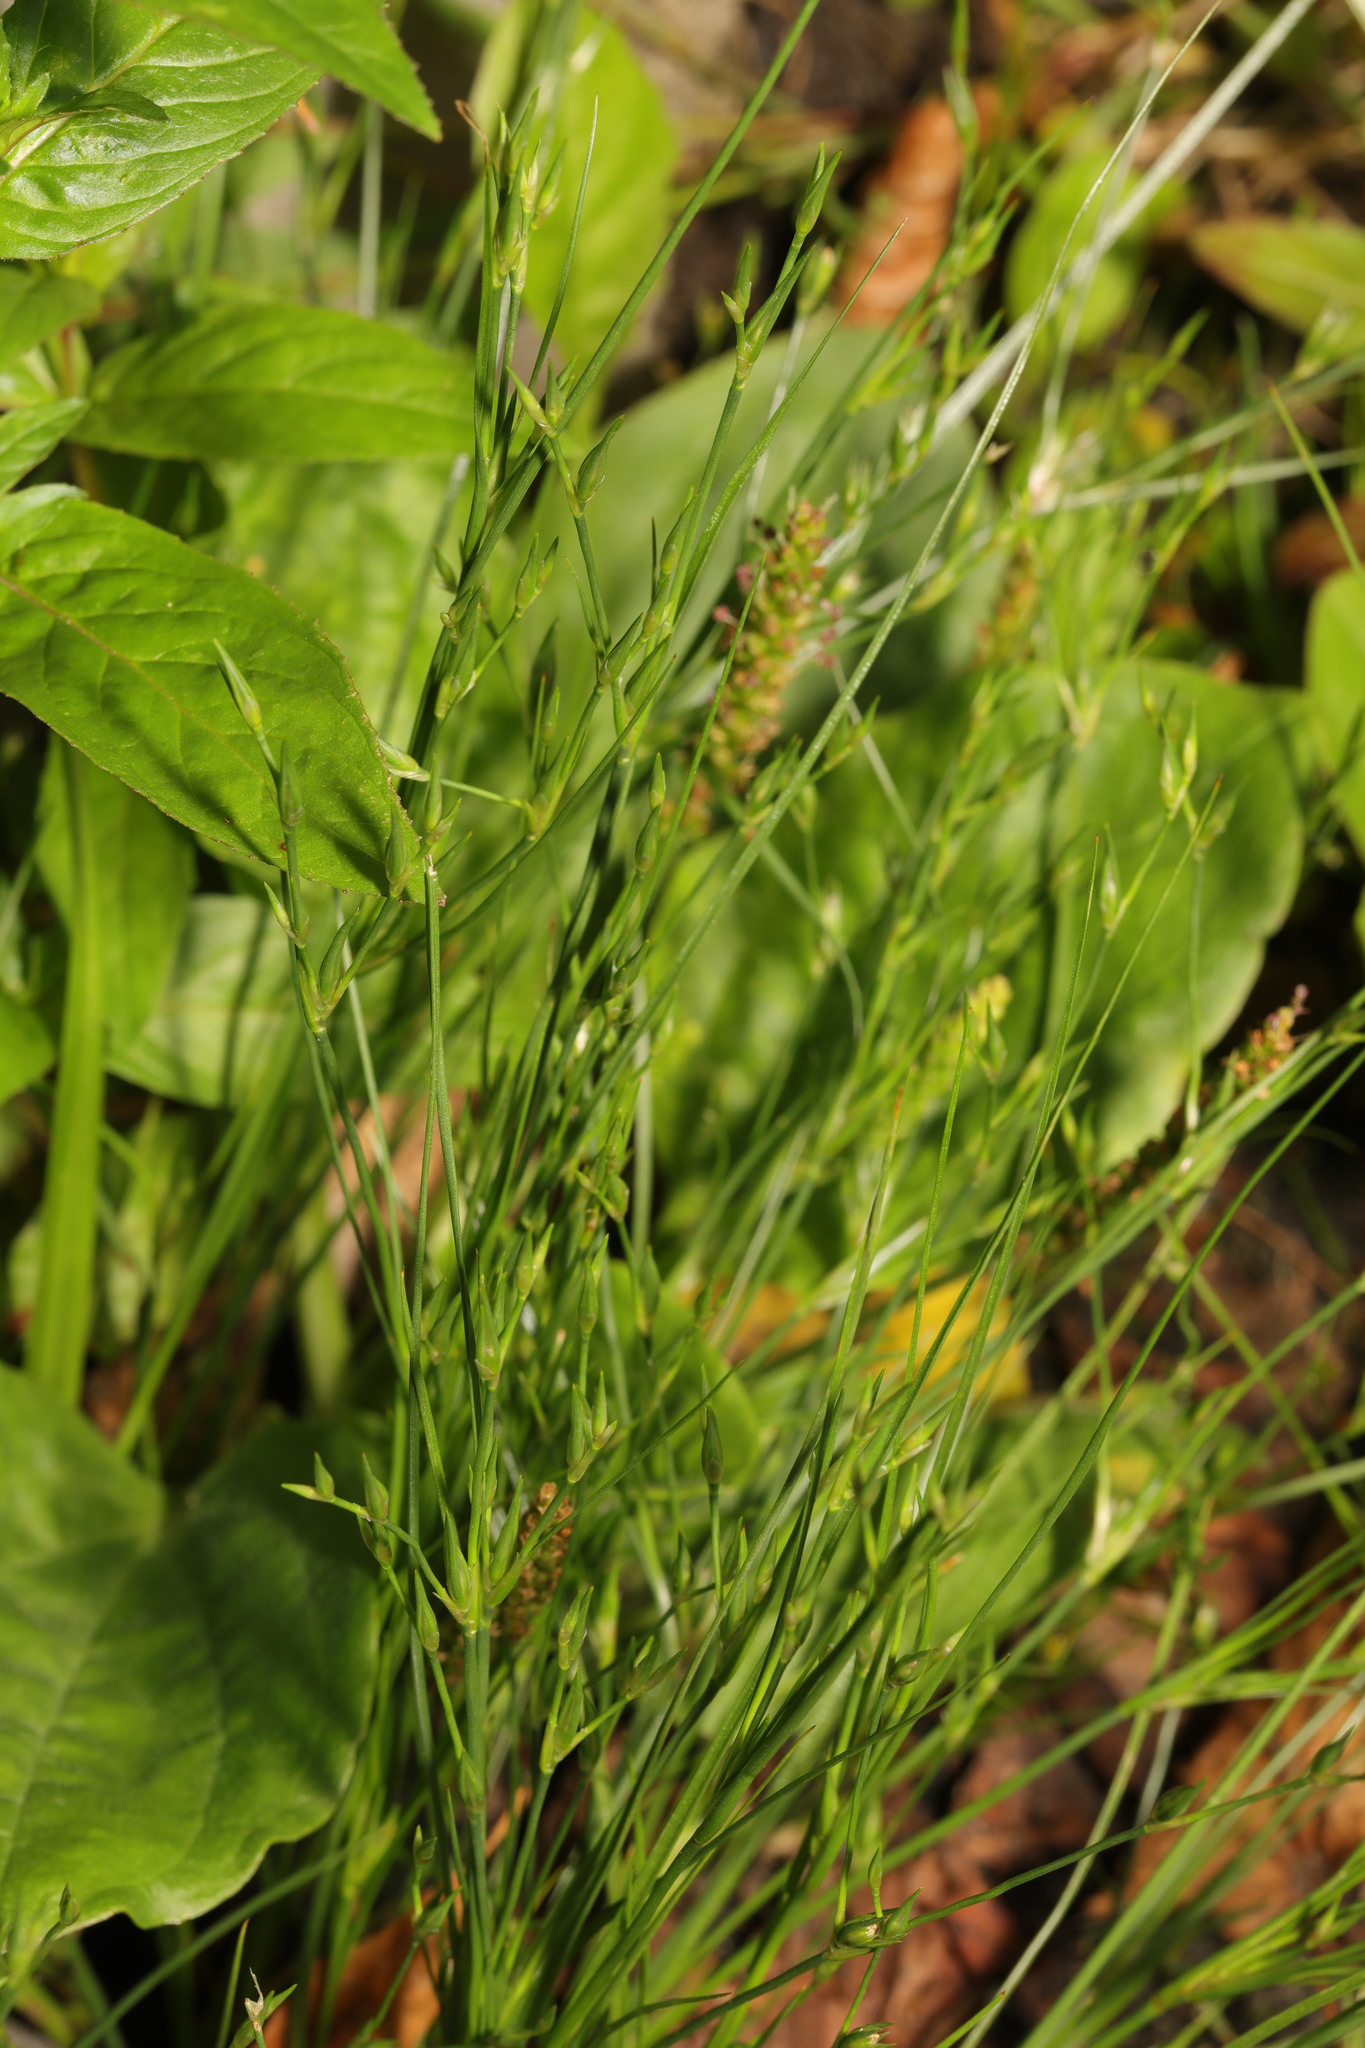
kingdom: Plantae
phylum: Tracheophyta
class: Liliopsida
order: Poales
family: Juncaceae
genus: Juncus
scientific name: Juncus bufonius
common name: Toad rush
